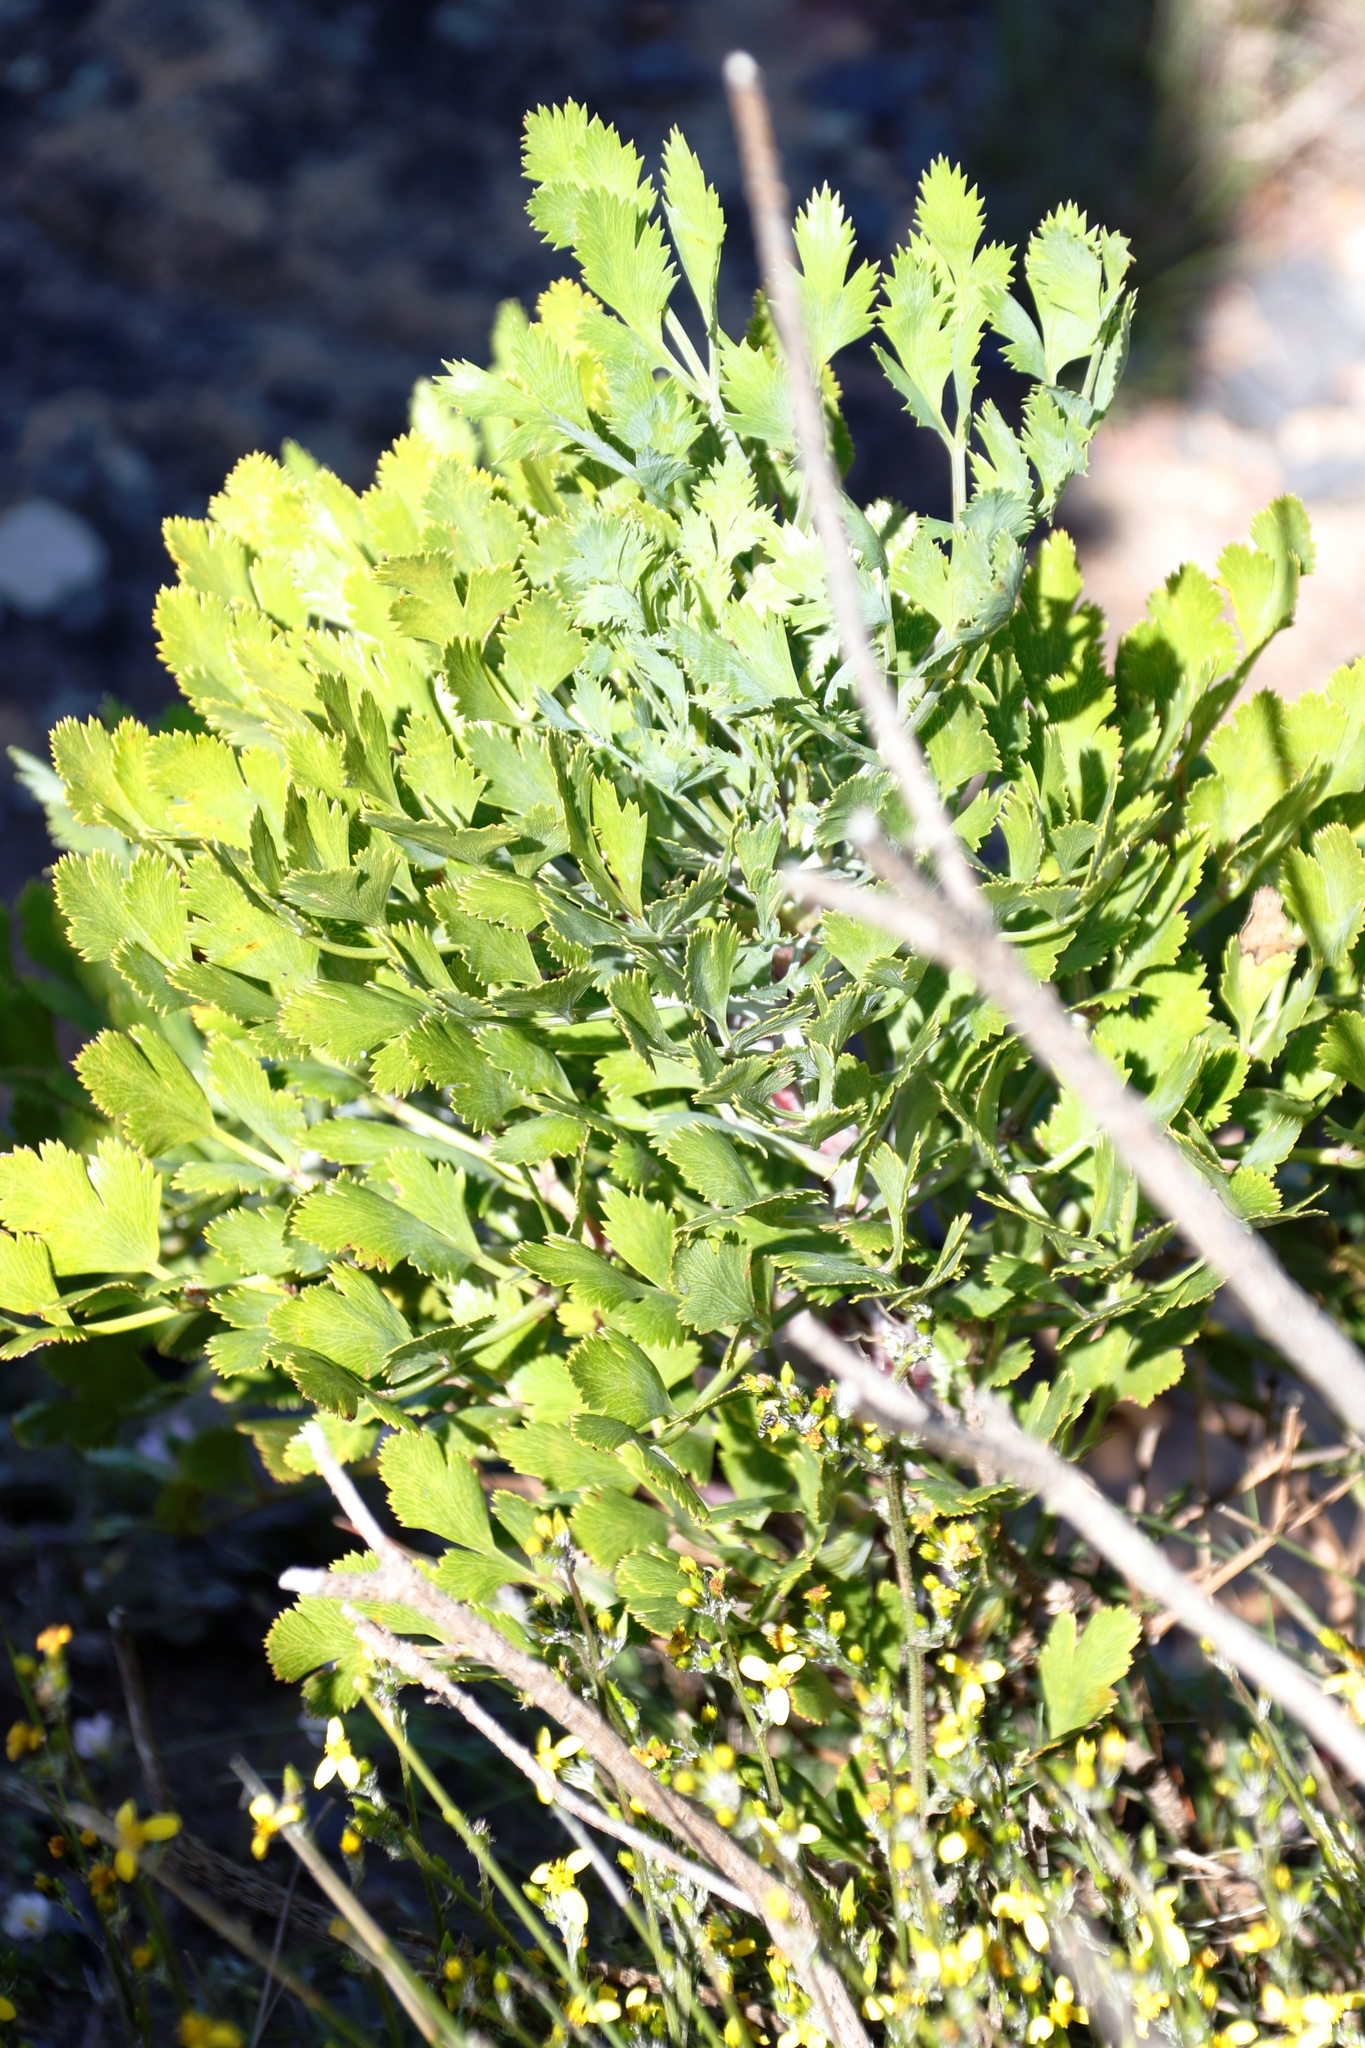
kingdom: Plantae
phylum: Tracheophyta
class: Magnoliopsida
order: Apiales
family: Apiaceae
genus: Notobubon
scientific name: Notobubon galbanum
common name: Blisterbush
